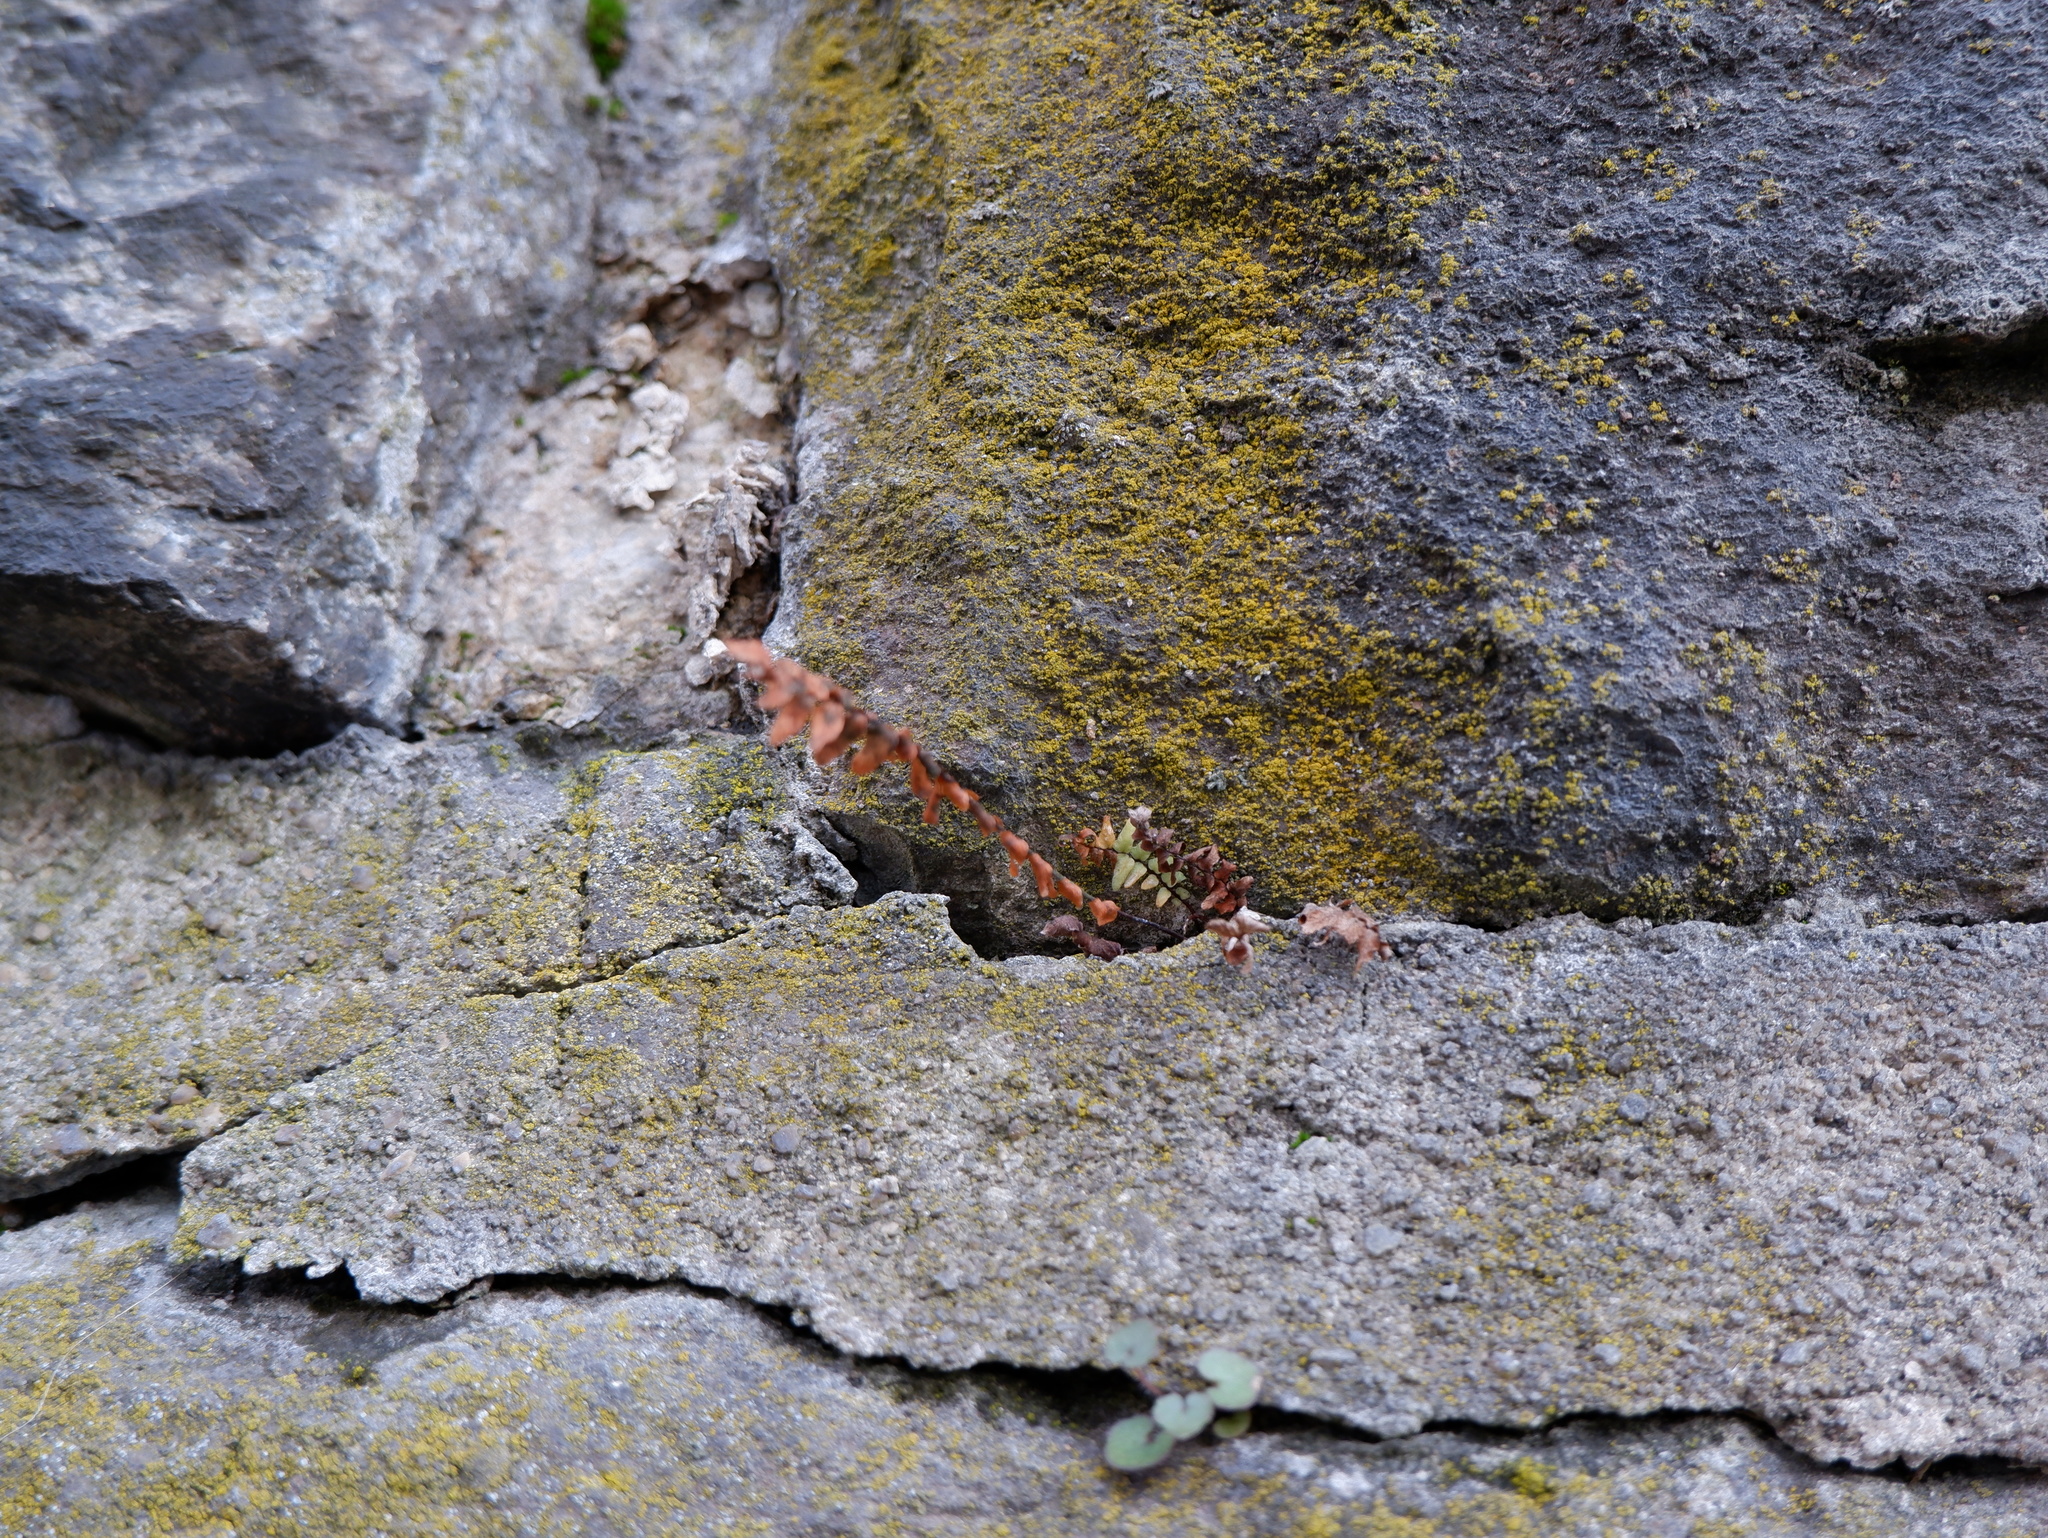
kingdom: Plantae
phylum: Tracheophyta
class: Polypodiopsida
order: Polypodiales
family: Aspleniaceae
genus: Asplenium
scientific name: Asplenium platyneuron
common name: Ebony spleenwort
